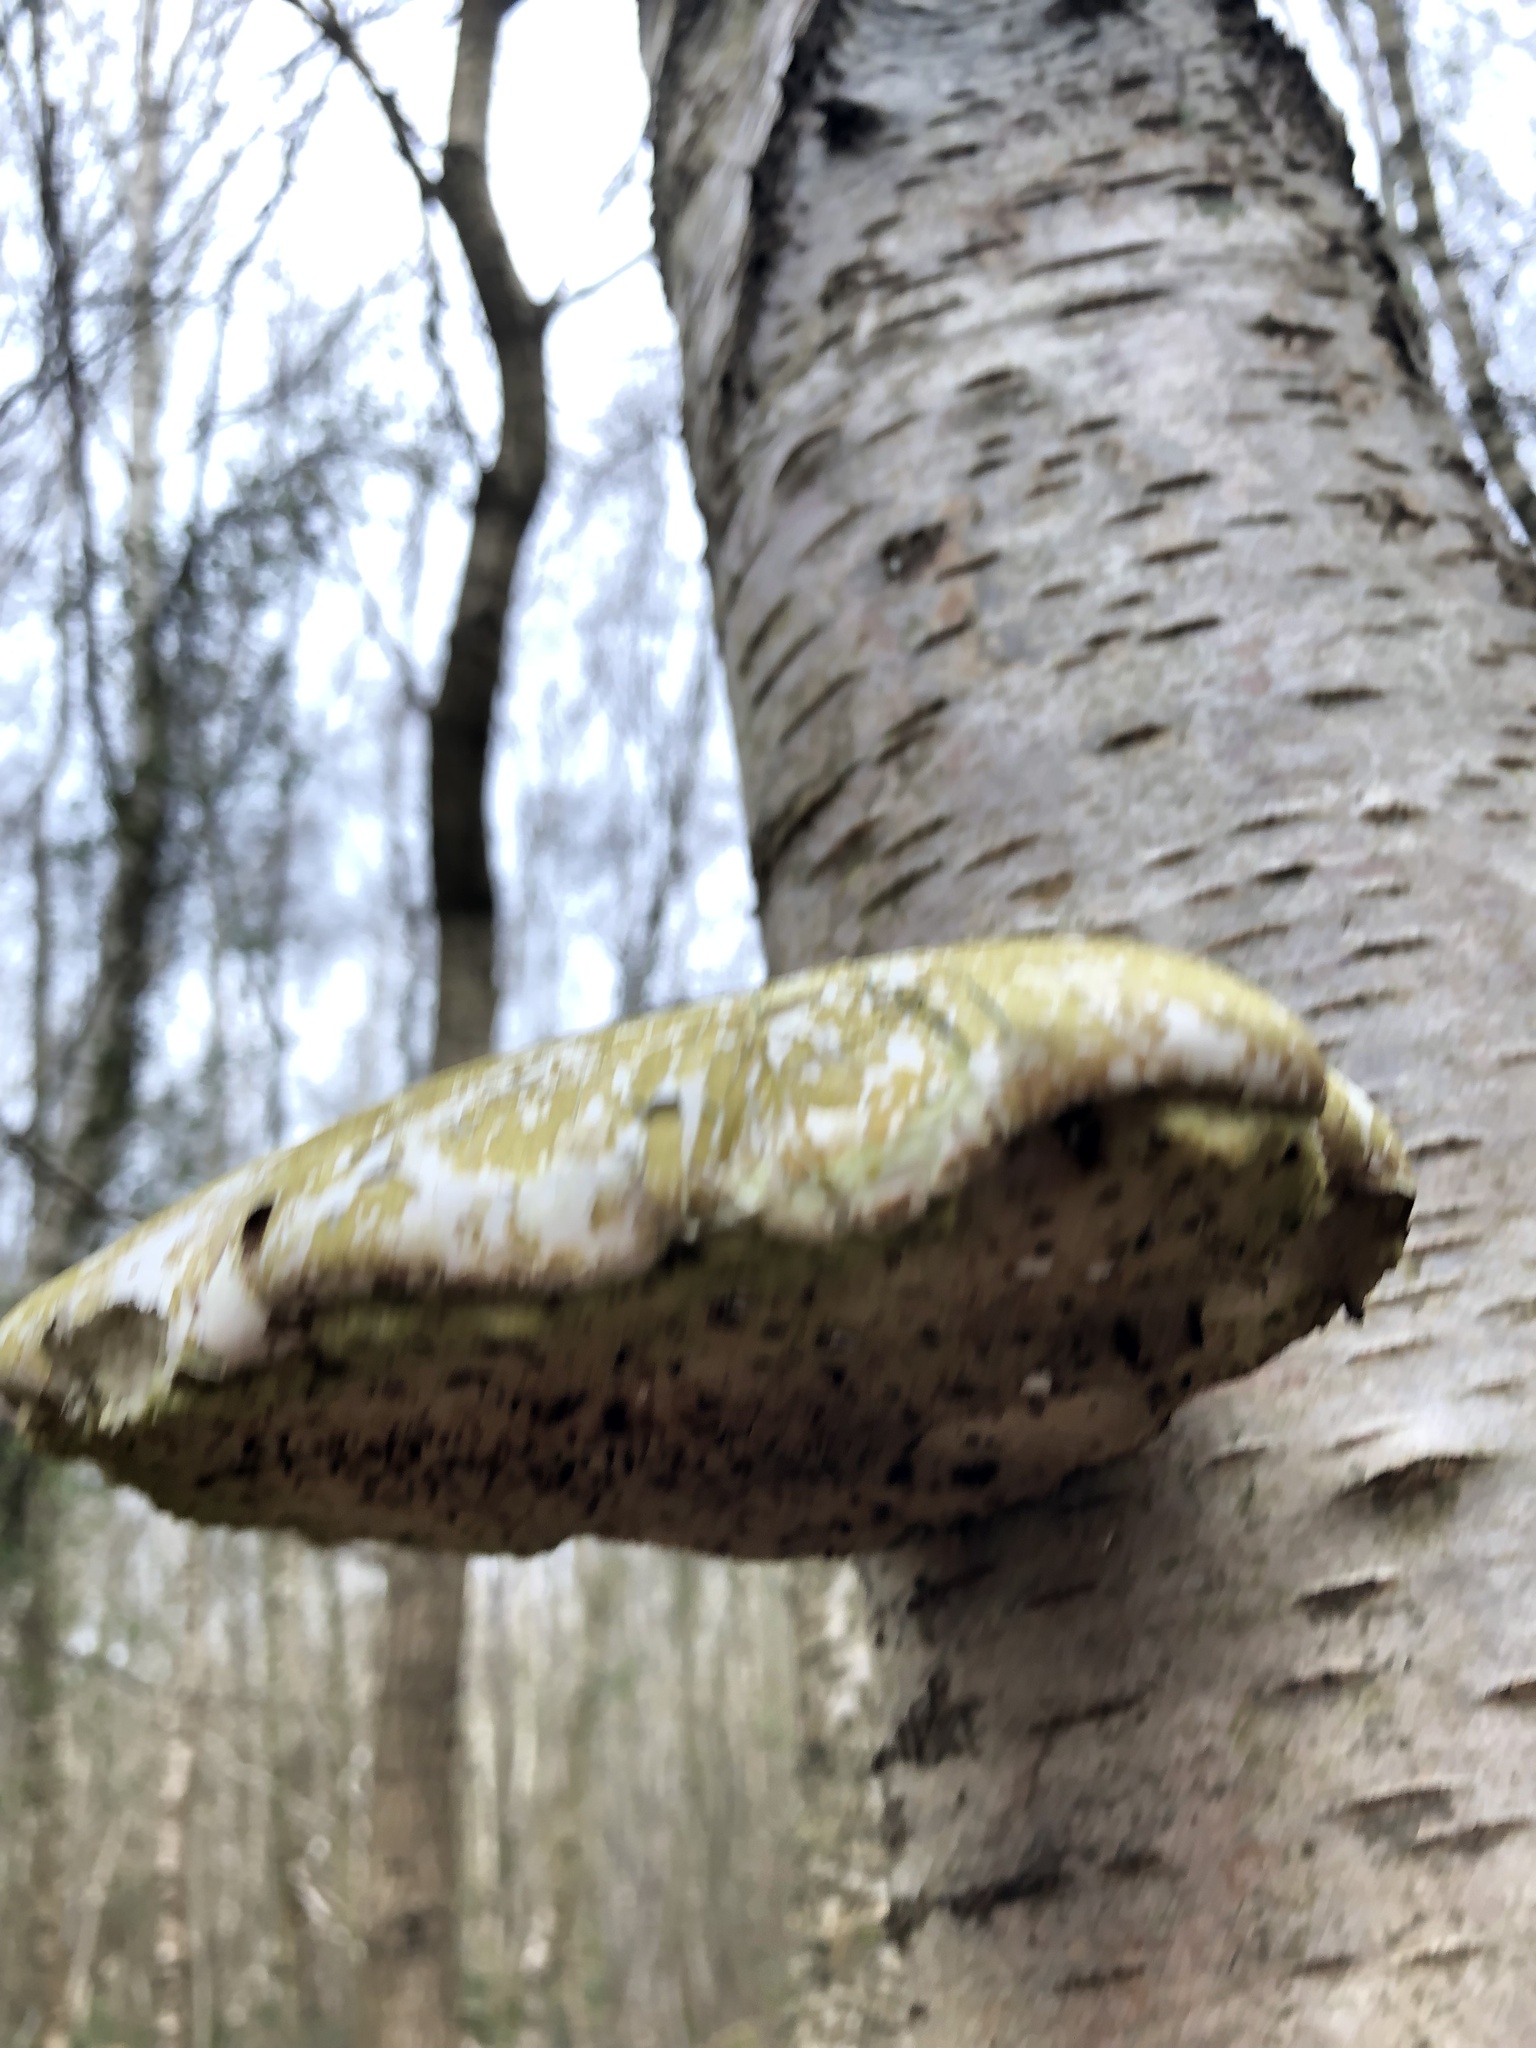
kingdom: Fungi
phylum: Basidiomycota
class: Agaricomycetes
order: Polyporales
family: Fomitopsidaceae
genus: Fomitopsis
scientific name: Fomitopsis betulina
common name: Birch polypore
